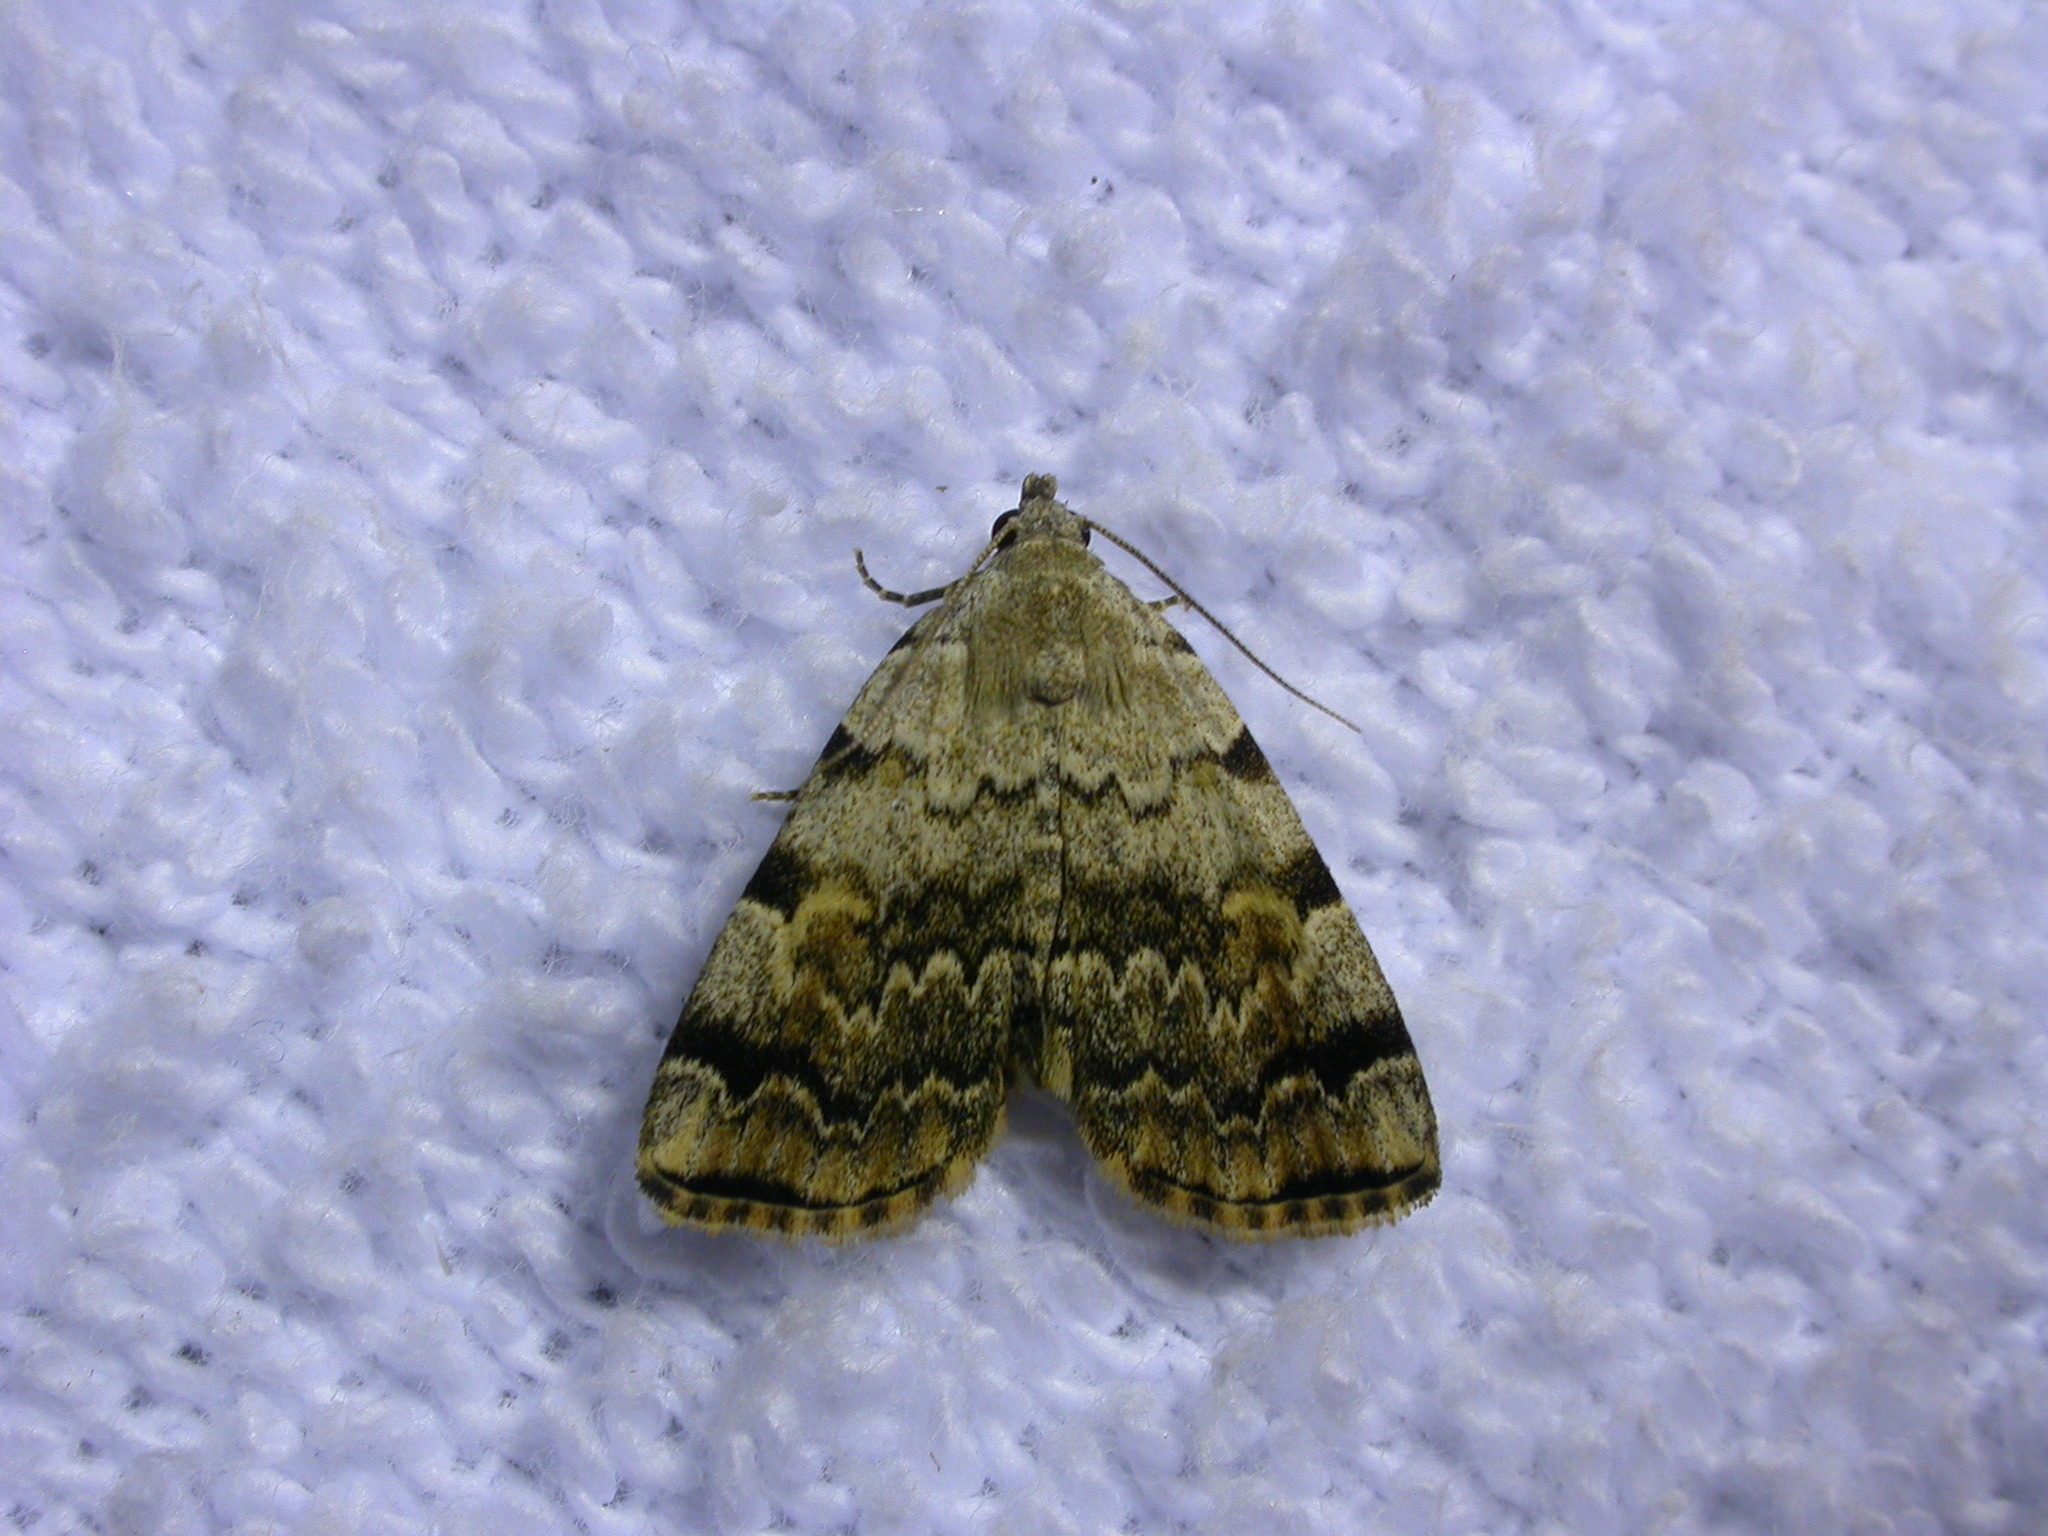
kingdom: Animalia
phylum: Arthropoda
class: Insecta
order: Lepidoptera
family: Erebidae
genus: Idia
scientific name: Idia americalis
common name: American idia moth
